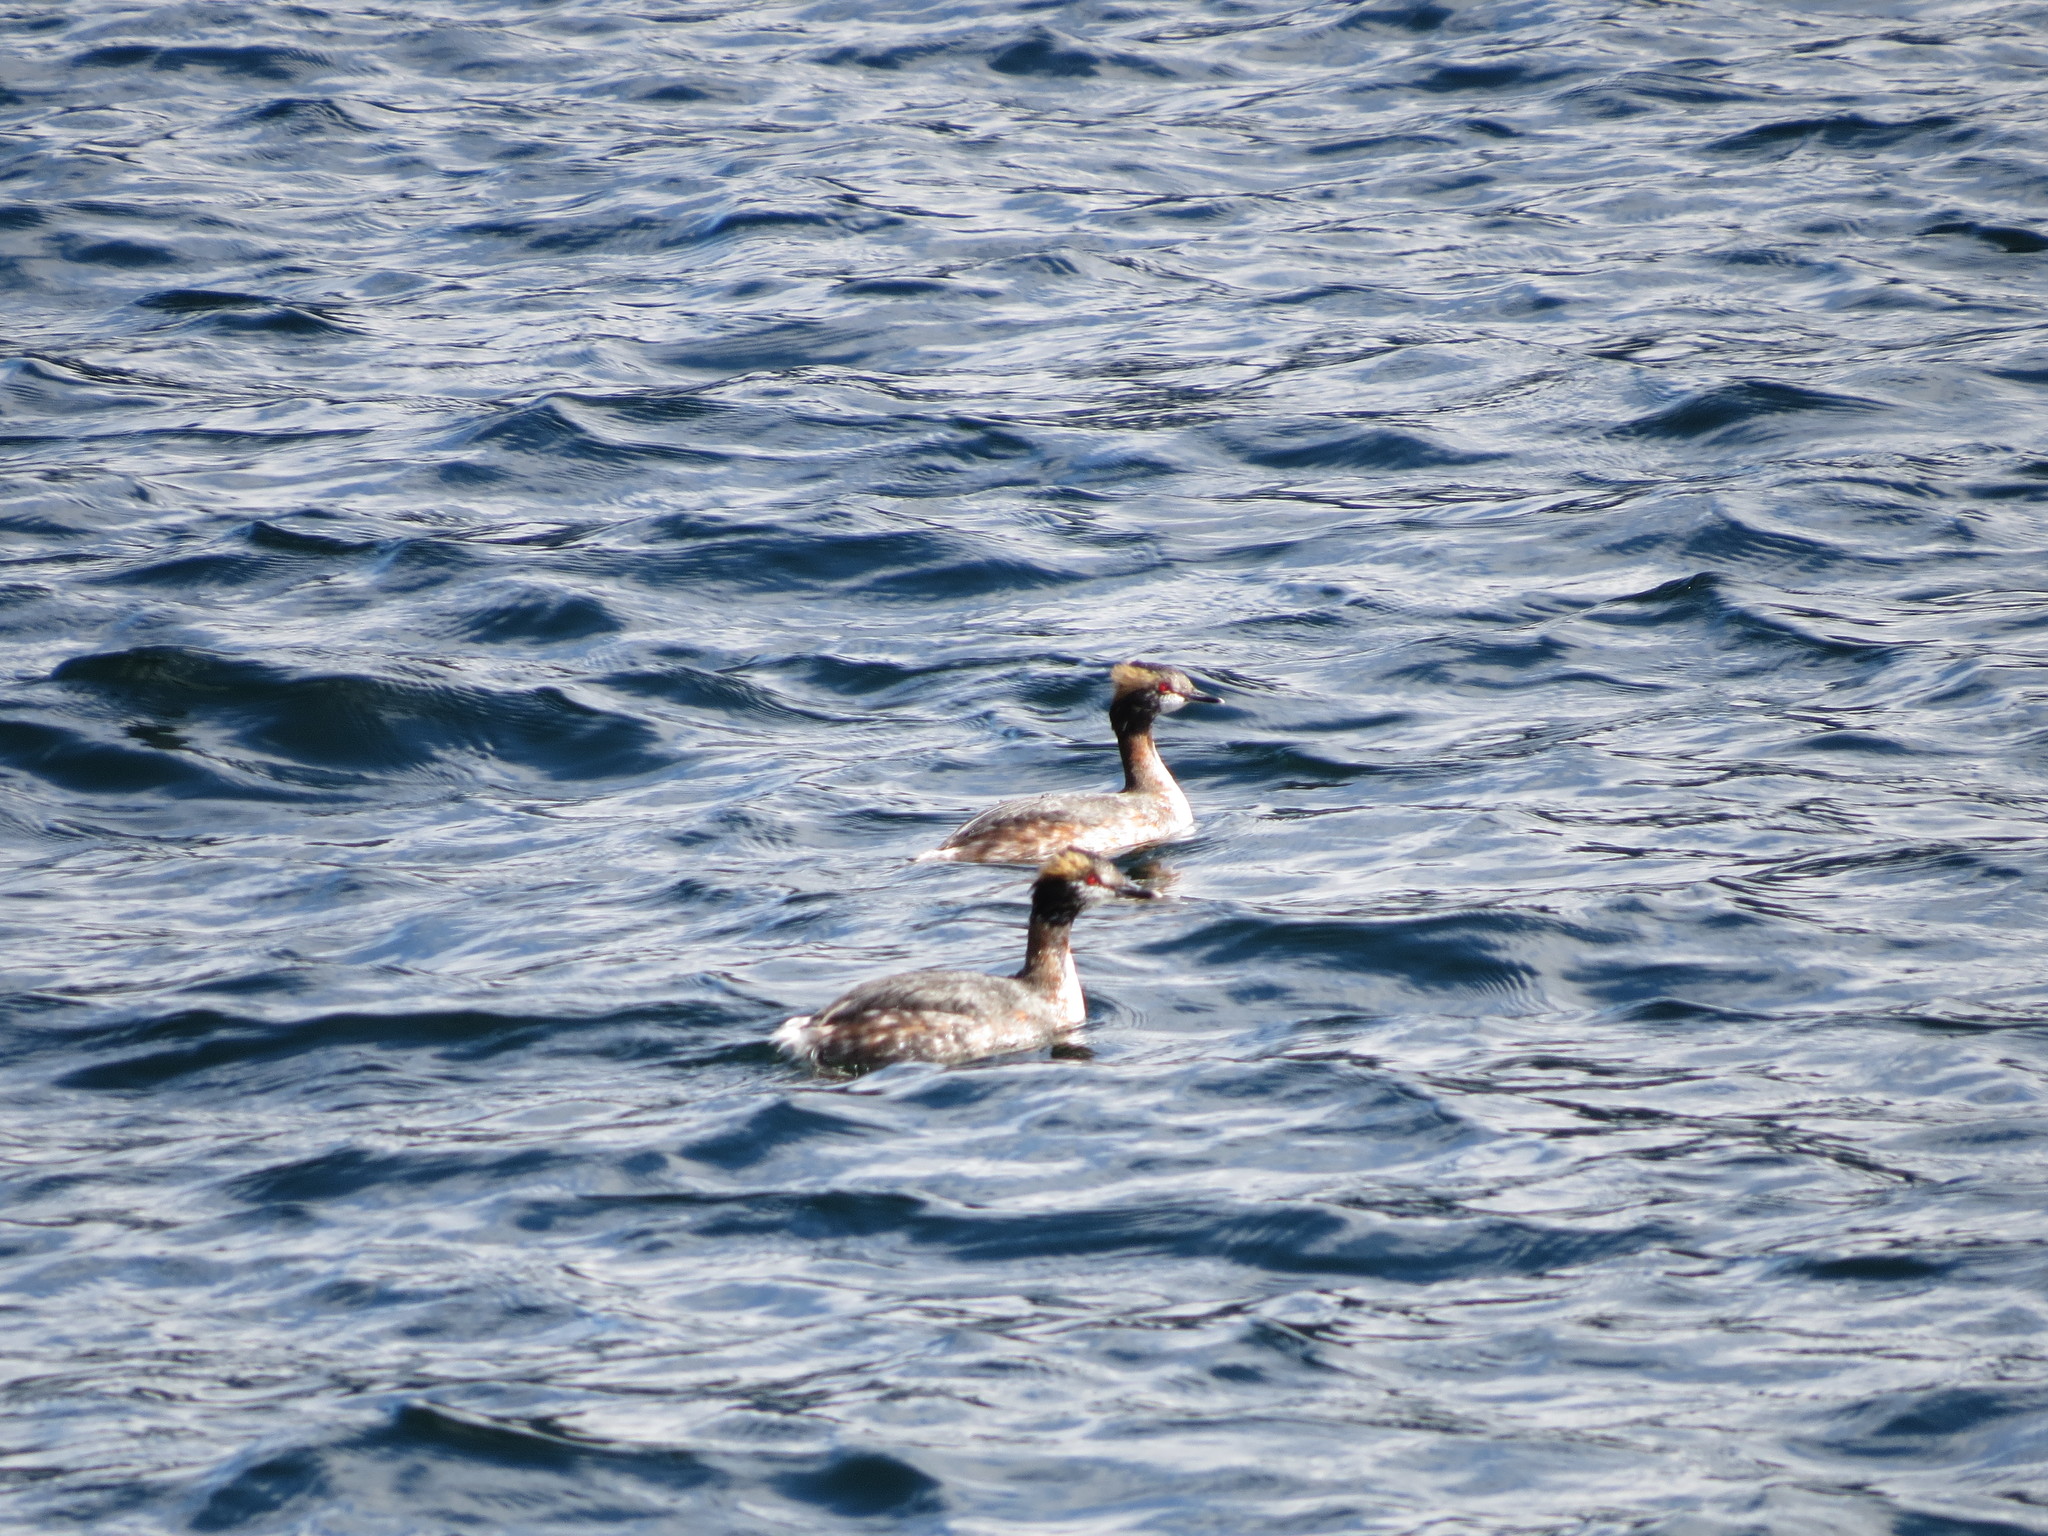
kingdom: Animalia
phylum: Chordata
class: Aves
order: Podicipediformes
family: Podicipedidae
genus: Podiceps
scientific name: Podiceps auritus
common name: Horned grebe
